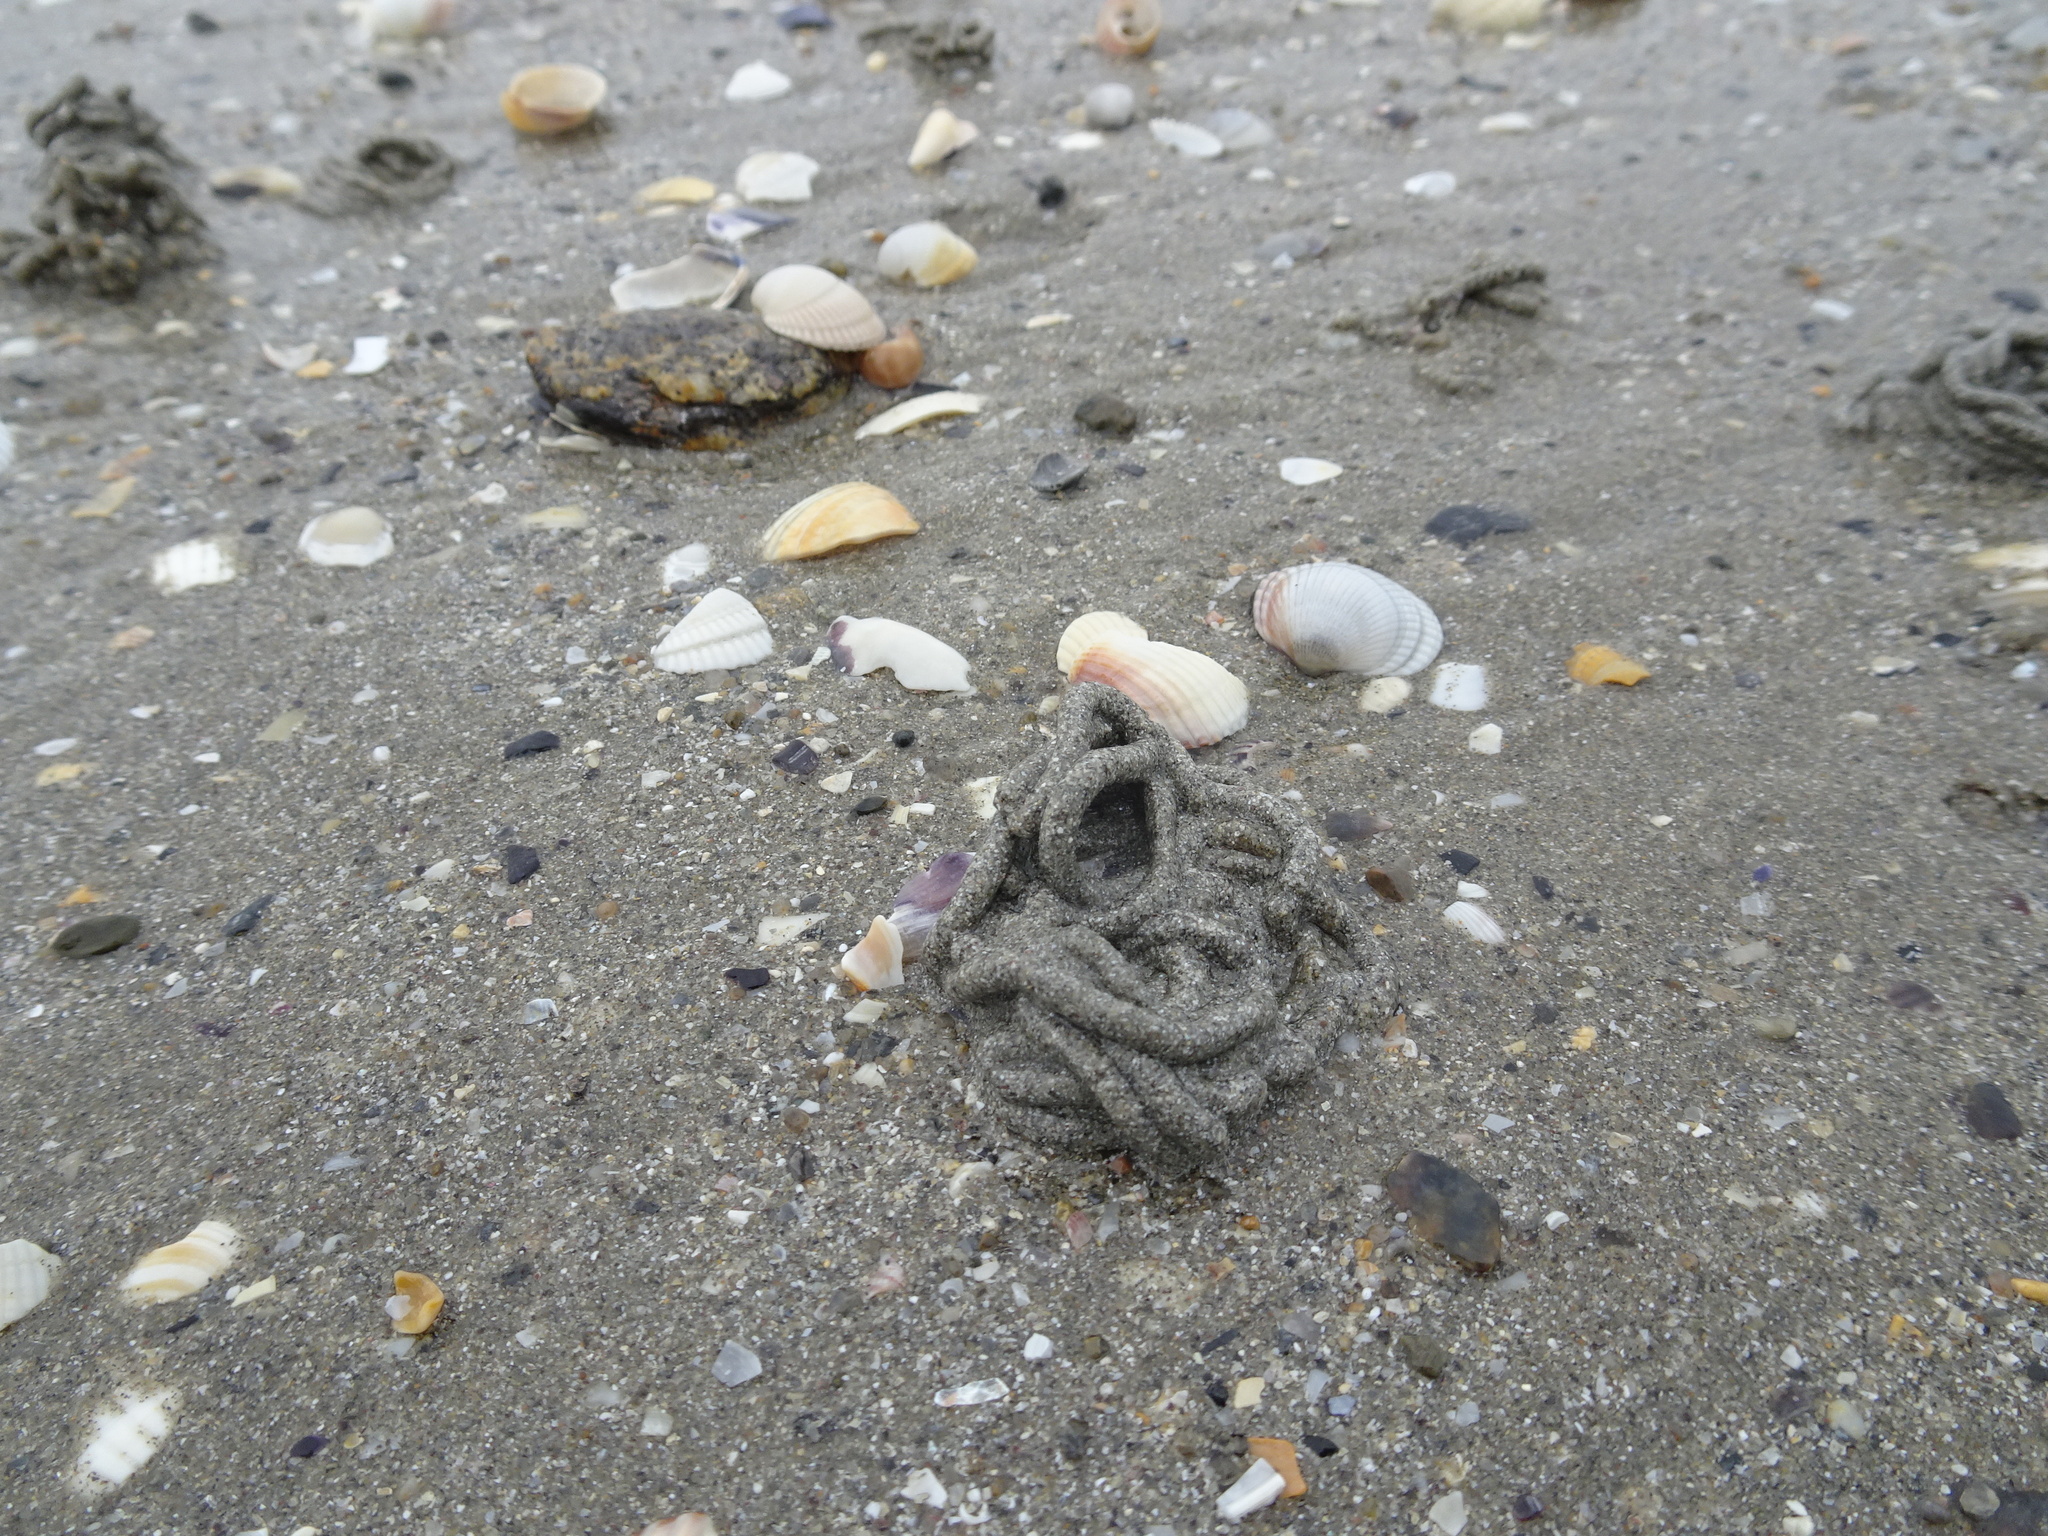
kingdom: Animalia
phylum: Annelida
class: Polychaeta
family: Arenicolidae
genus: Arenicola
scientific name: Arenicola marina
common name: Blow lugworm
